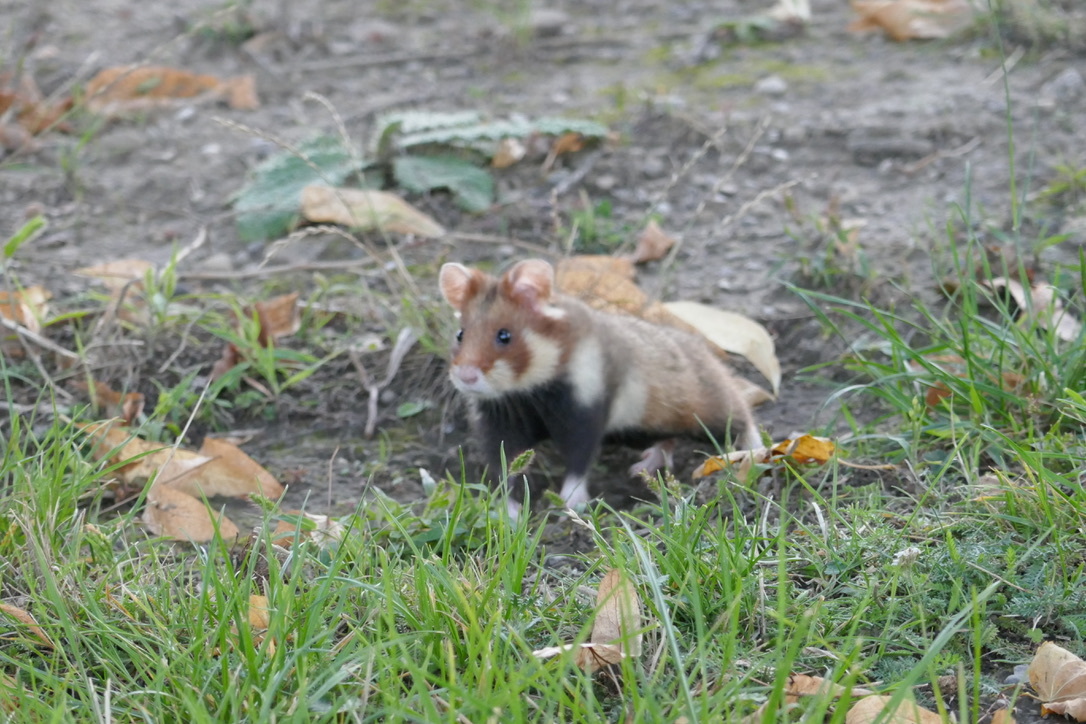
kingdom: Animalia
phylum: Chordata
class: Mammalia
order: Rodentia
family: Cricetidae
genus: Cricetus
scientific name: Cricetus cricetus
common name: Common hamster
